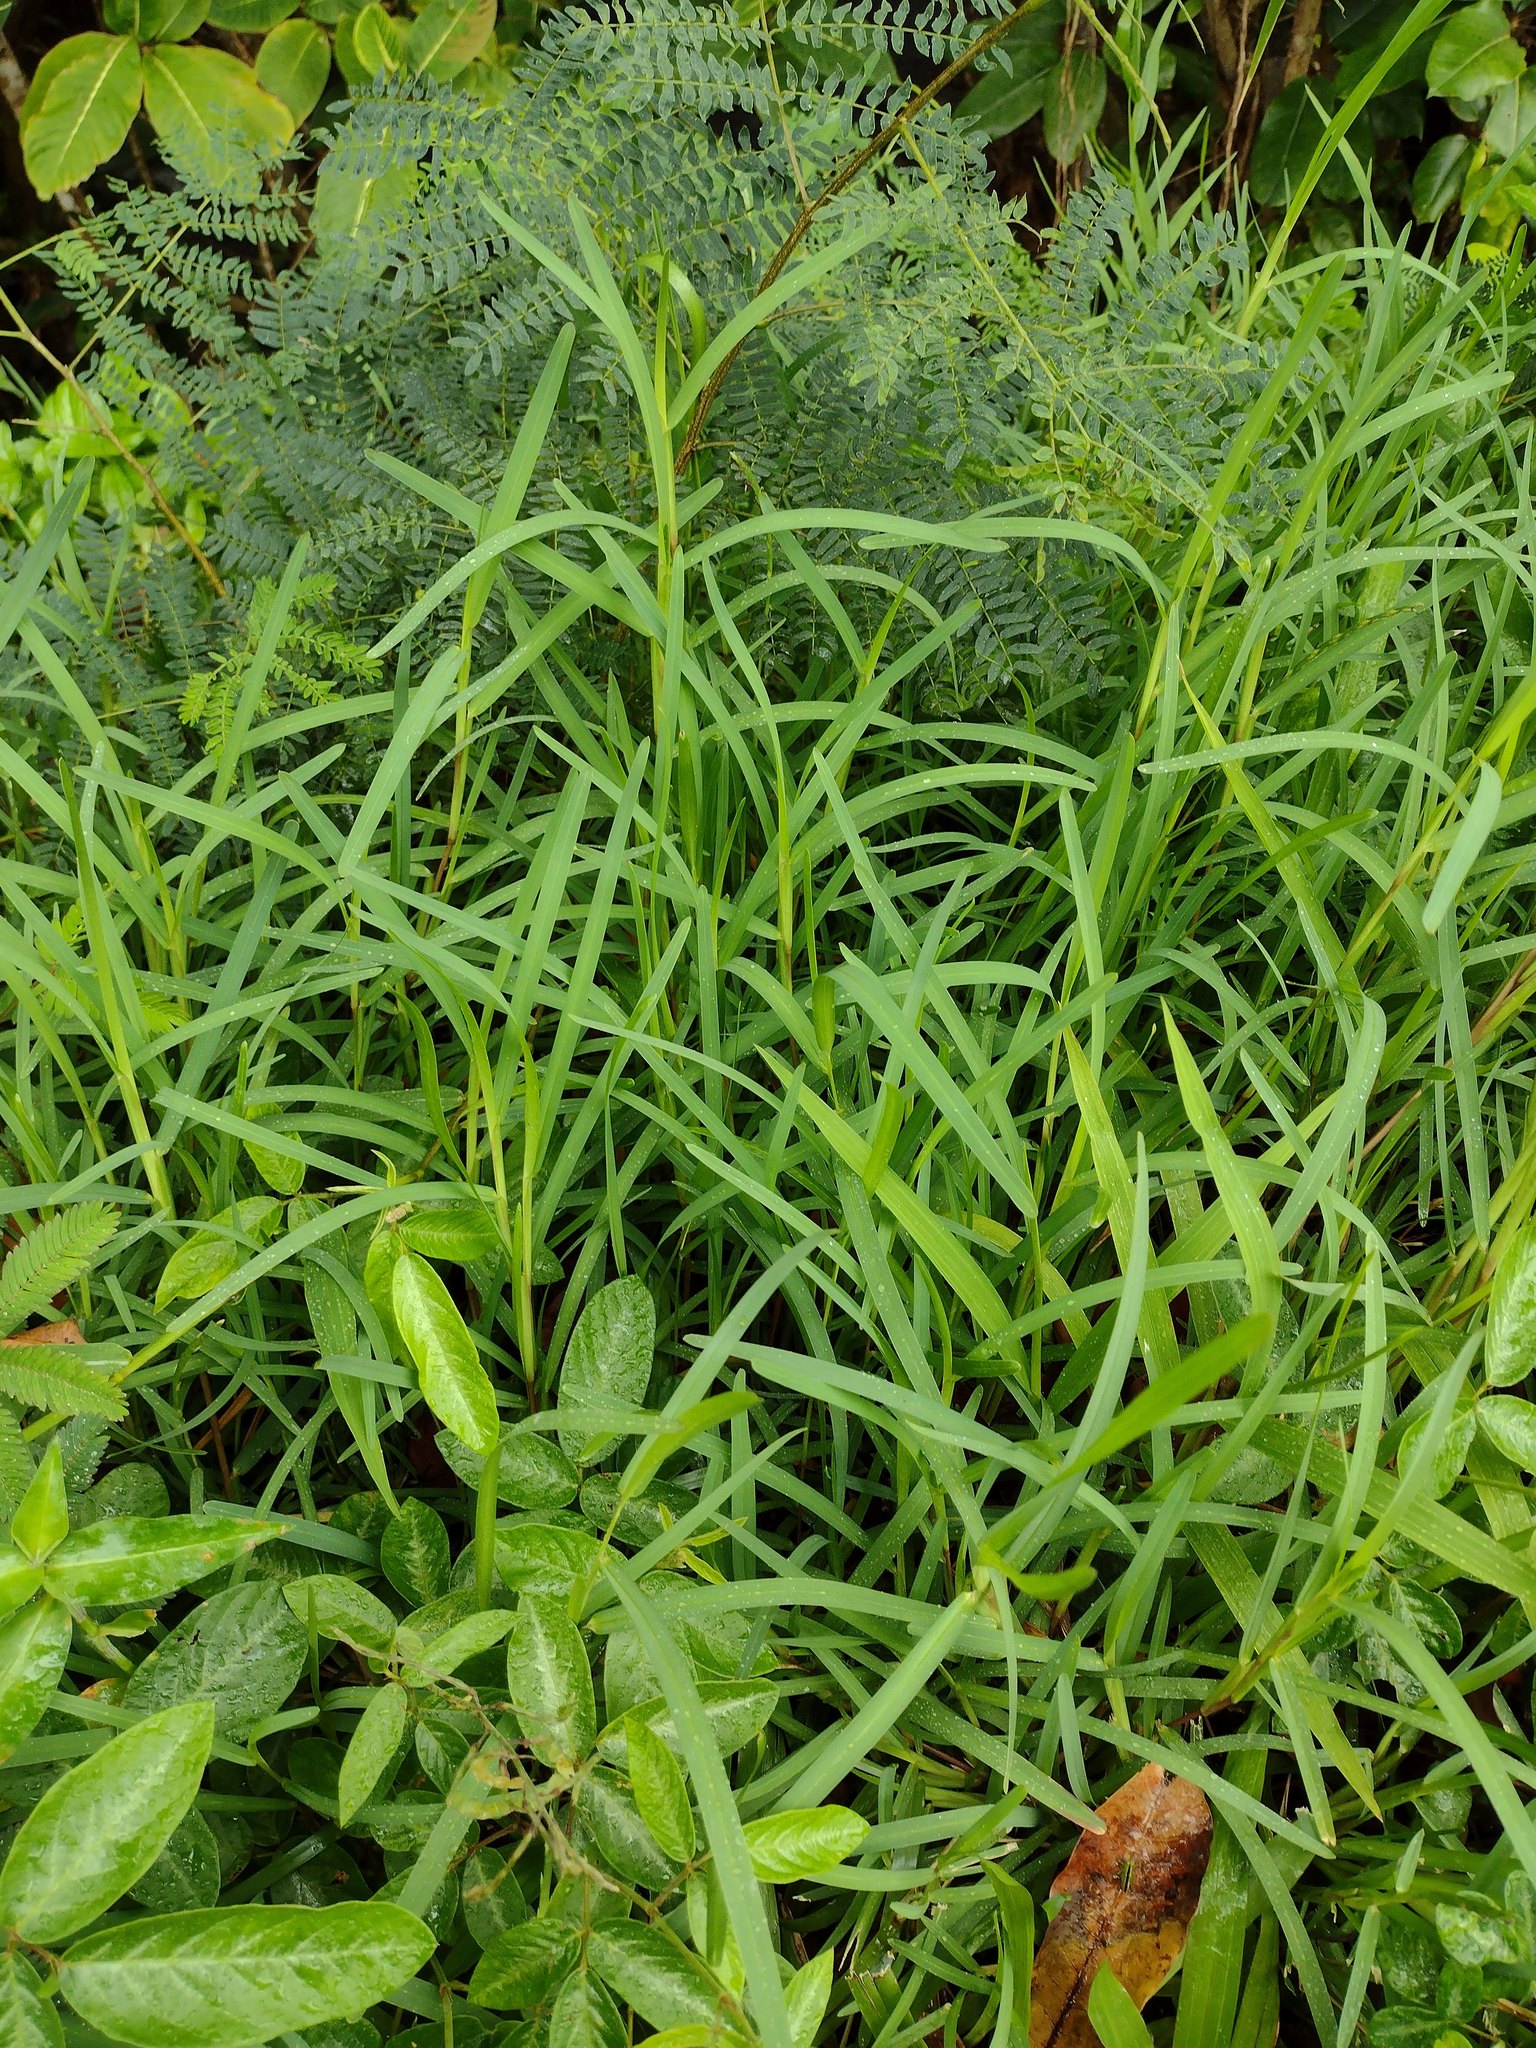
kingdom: Plantae
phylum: Tracheophyta
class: Liliopsida
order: Poales
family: Poaceae
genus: Stenotaphrum
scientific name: Stenotaphrum secundatum
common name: St. augustine grass
